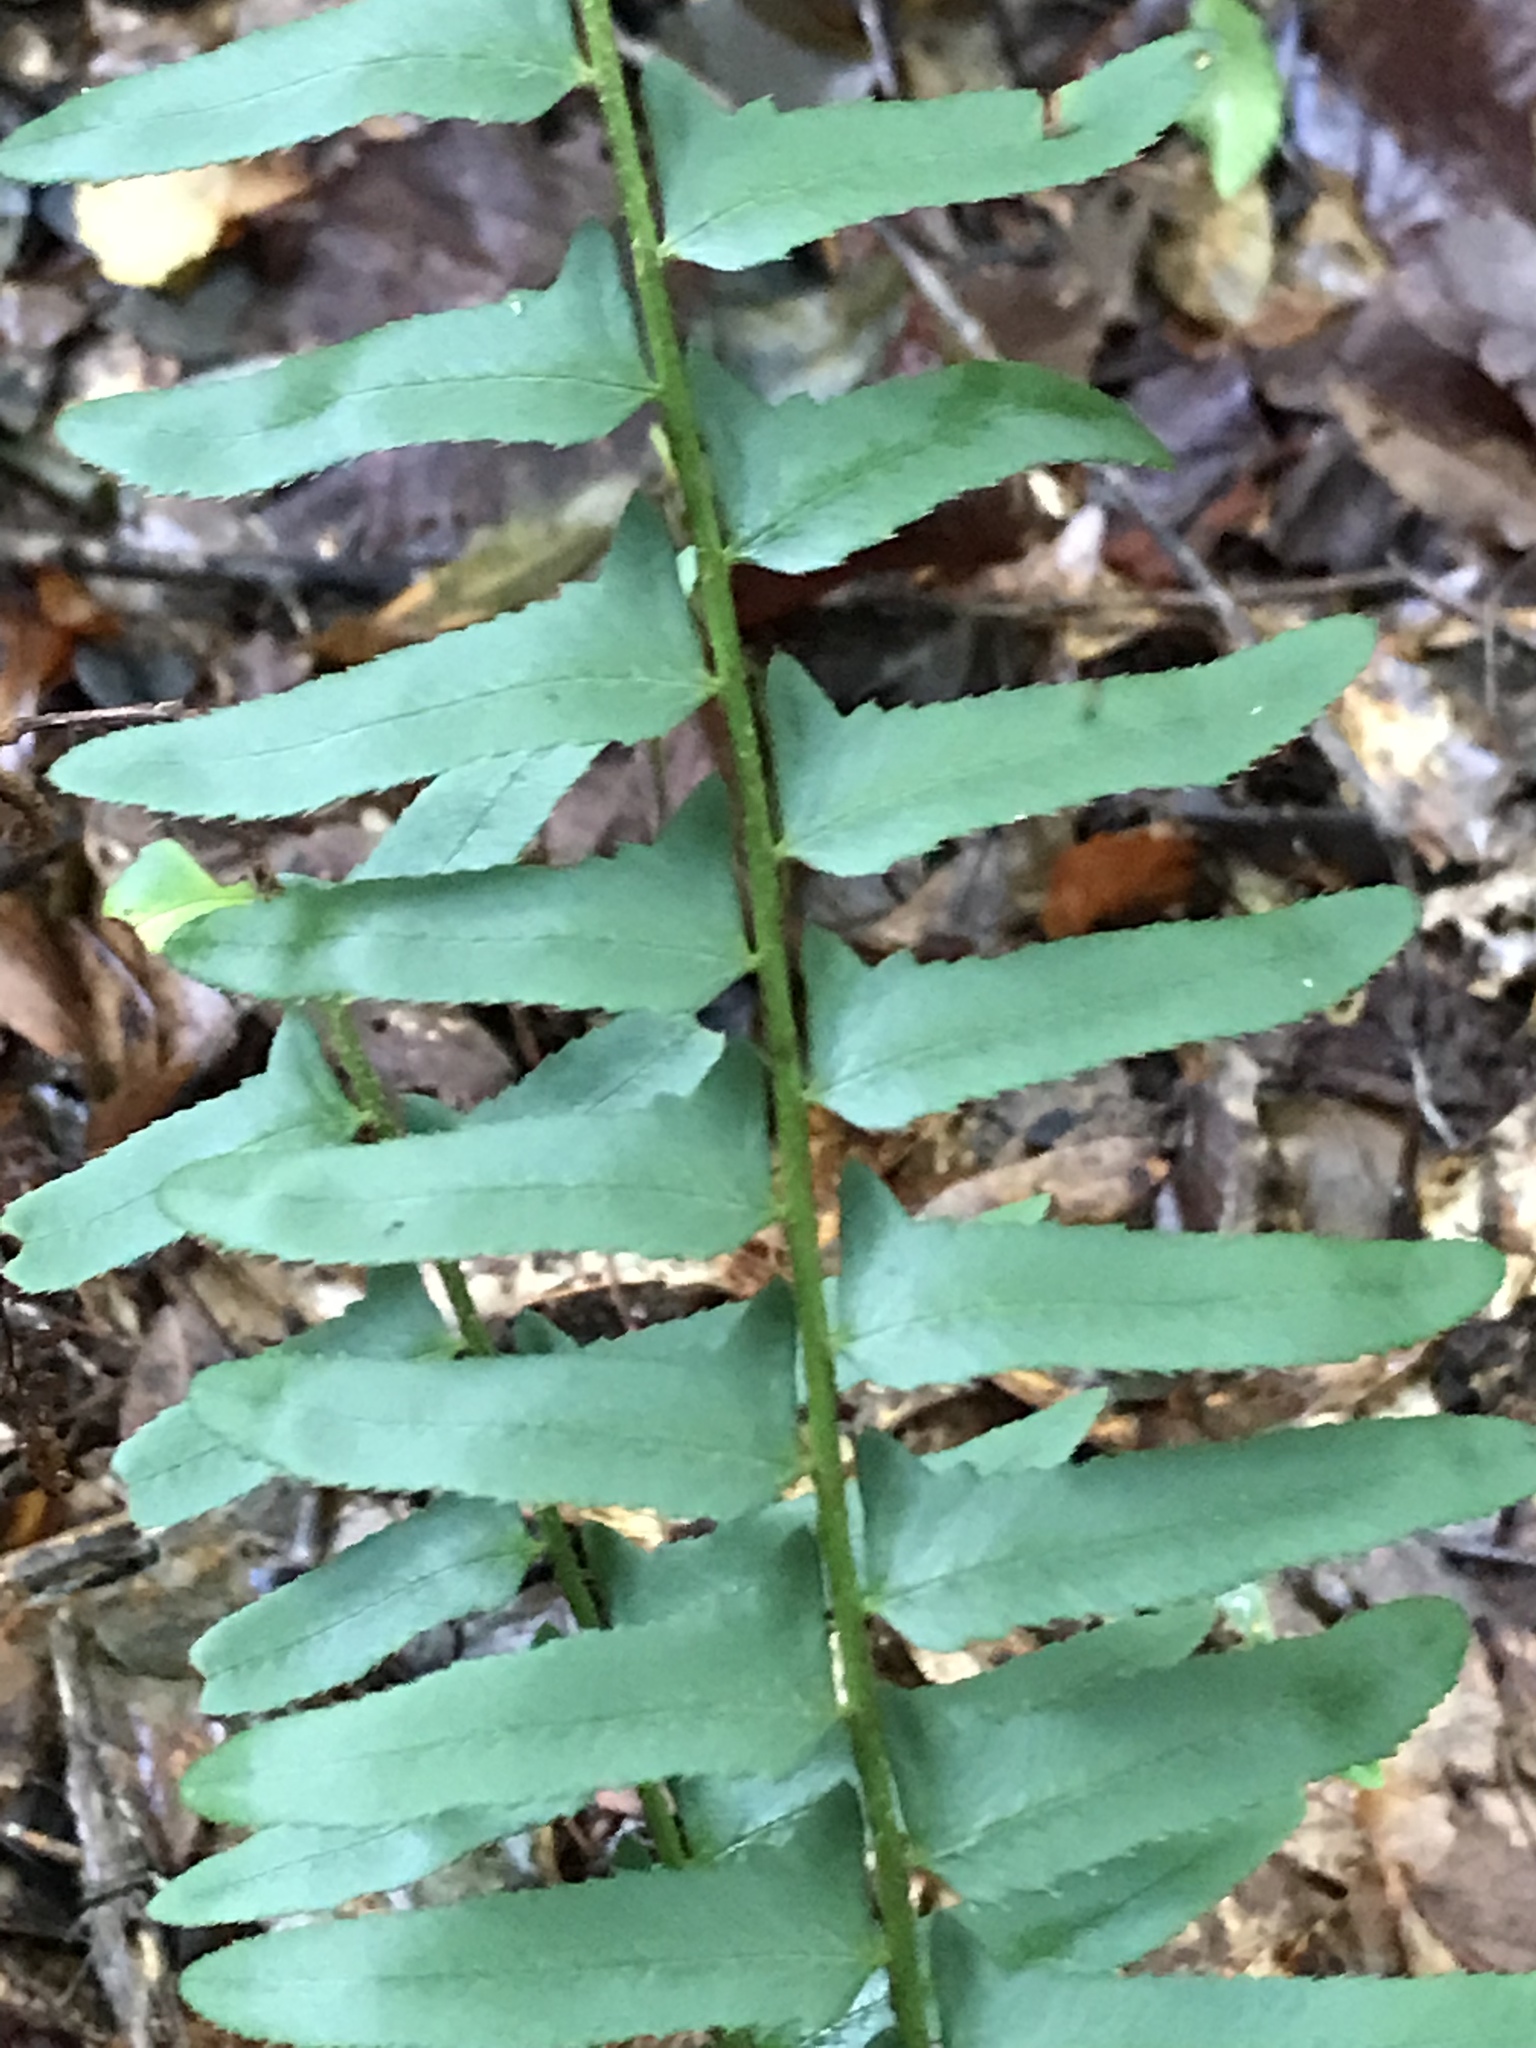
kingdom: Plantae
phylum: Tracheophyta
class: Polypodiopsida
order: Polypodiales
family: Dryopteridaceae
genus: Polystichum
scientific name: Polystichum acrostichoides
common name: Christmas fern
